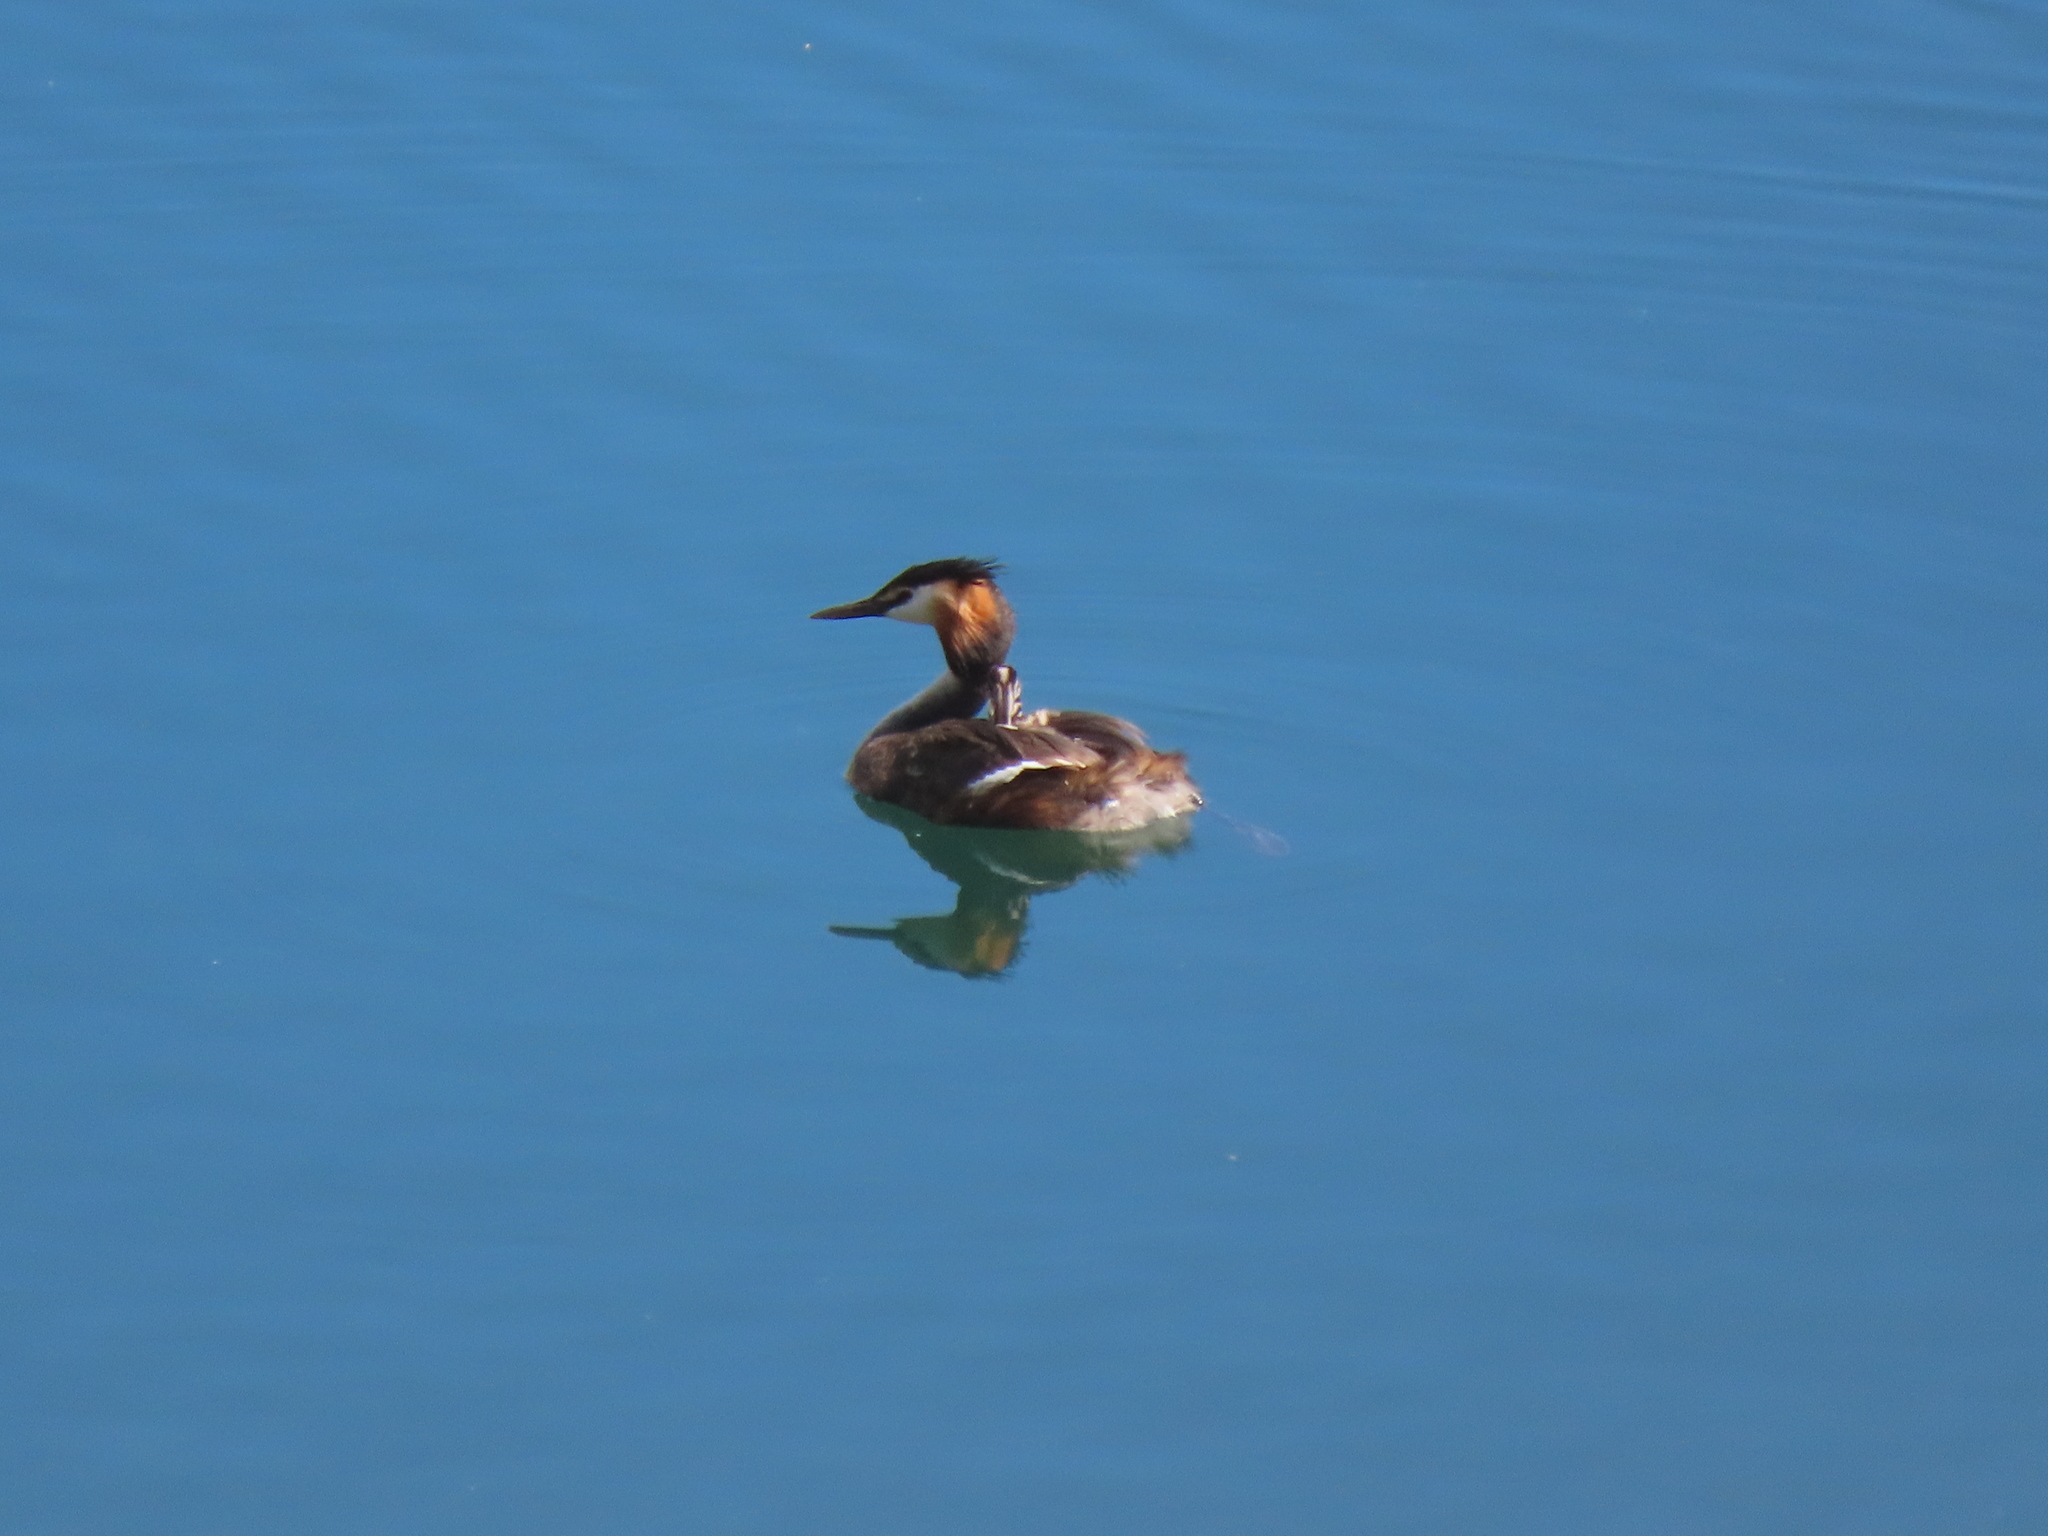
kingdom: Animalia
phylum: Chordata
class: Aves
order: Podicipediformes
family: Podicipedidae
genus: Podiceps
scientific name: Podiceps cristatus
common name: Great crested grebe
